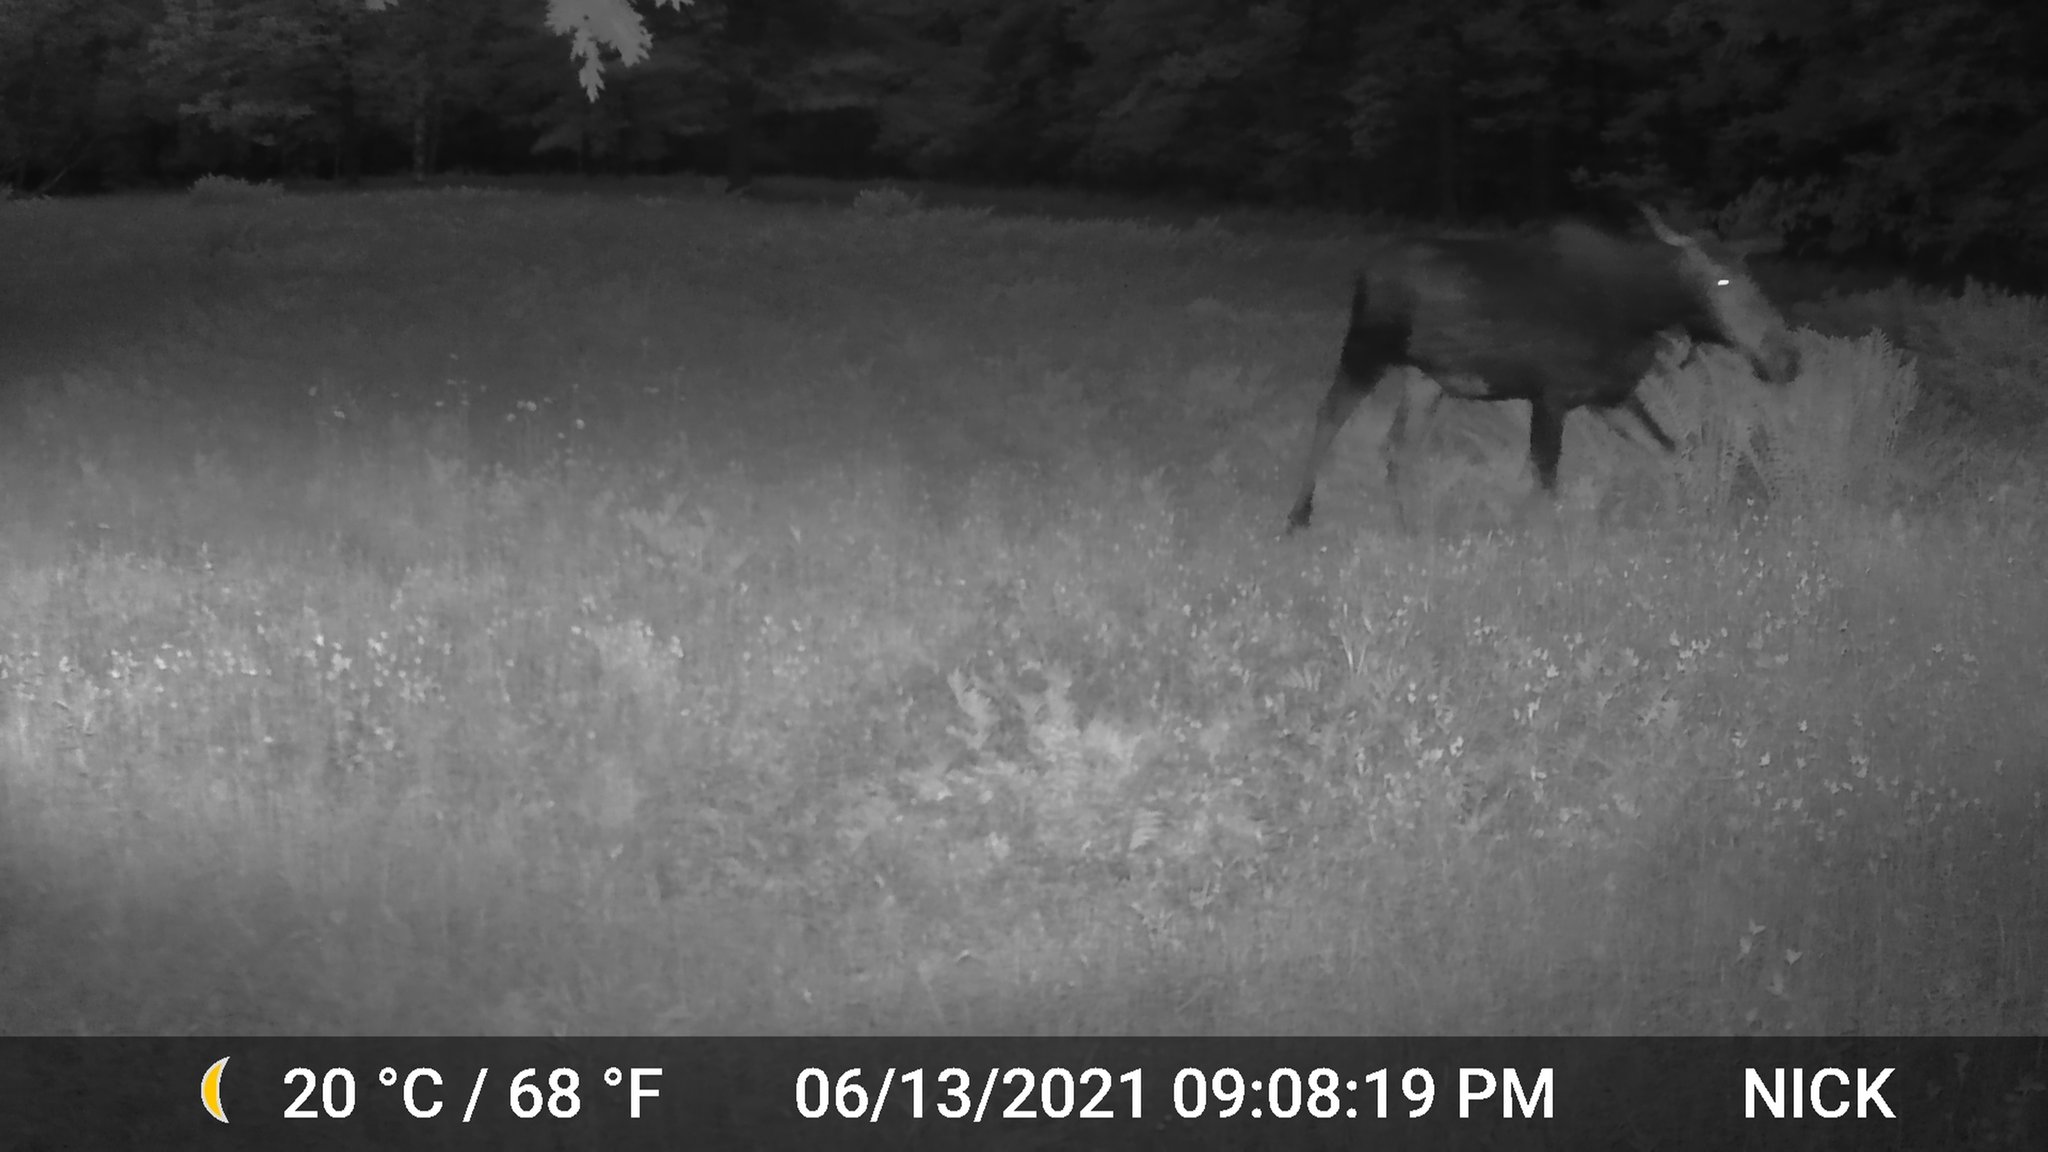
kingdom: Animalia
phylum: Chordata
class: Mammalia
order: Artiodactyla
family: Cervidae
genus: Alces
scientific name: Alces alces
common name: Moose
